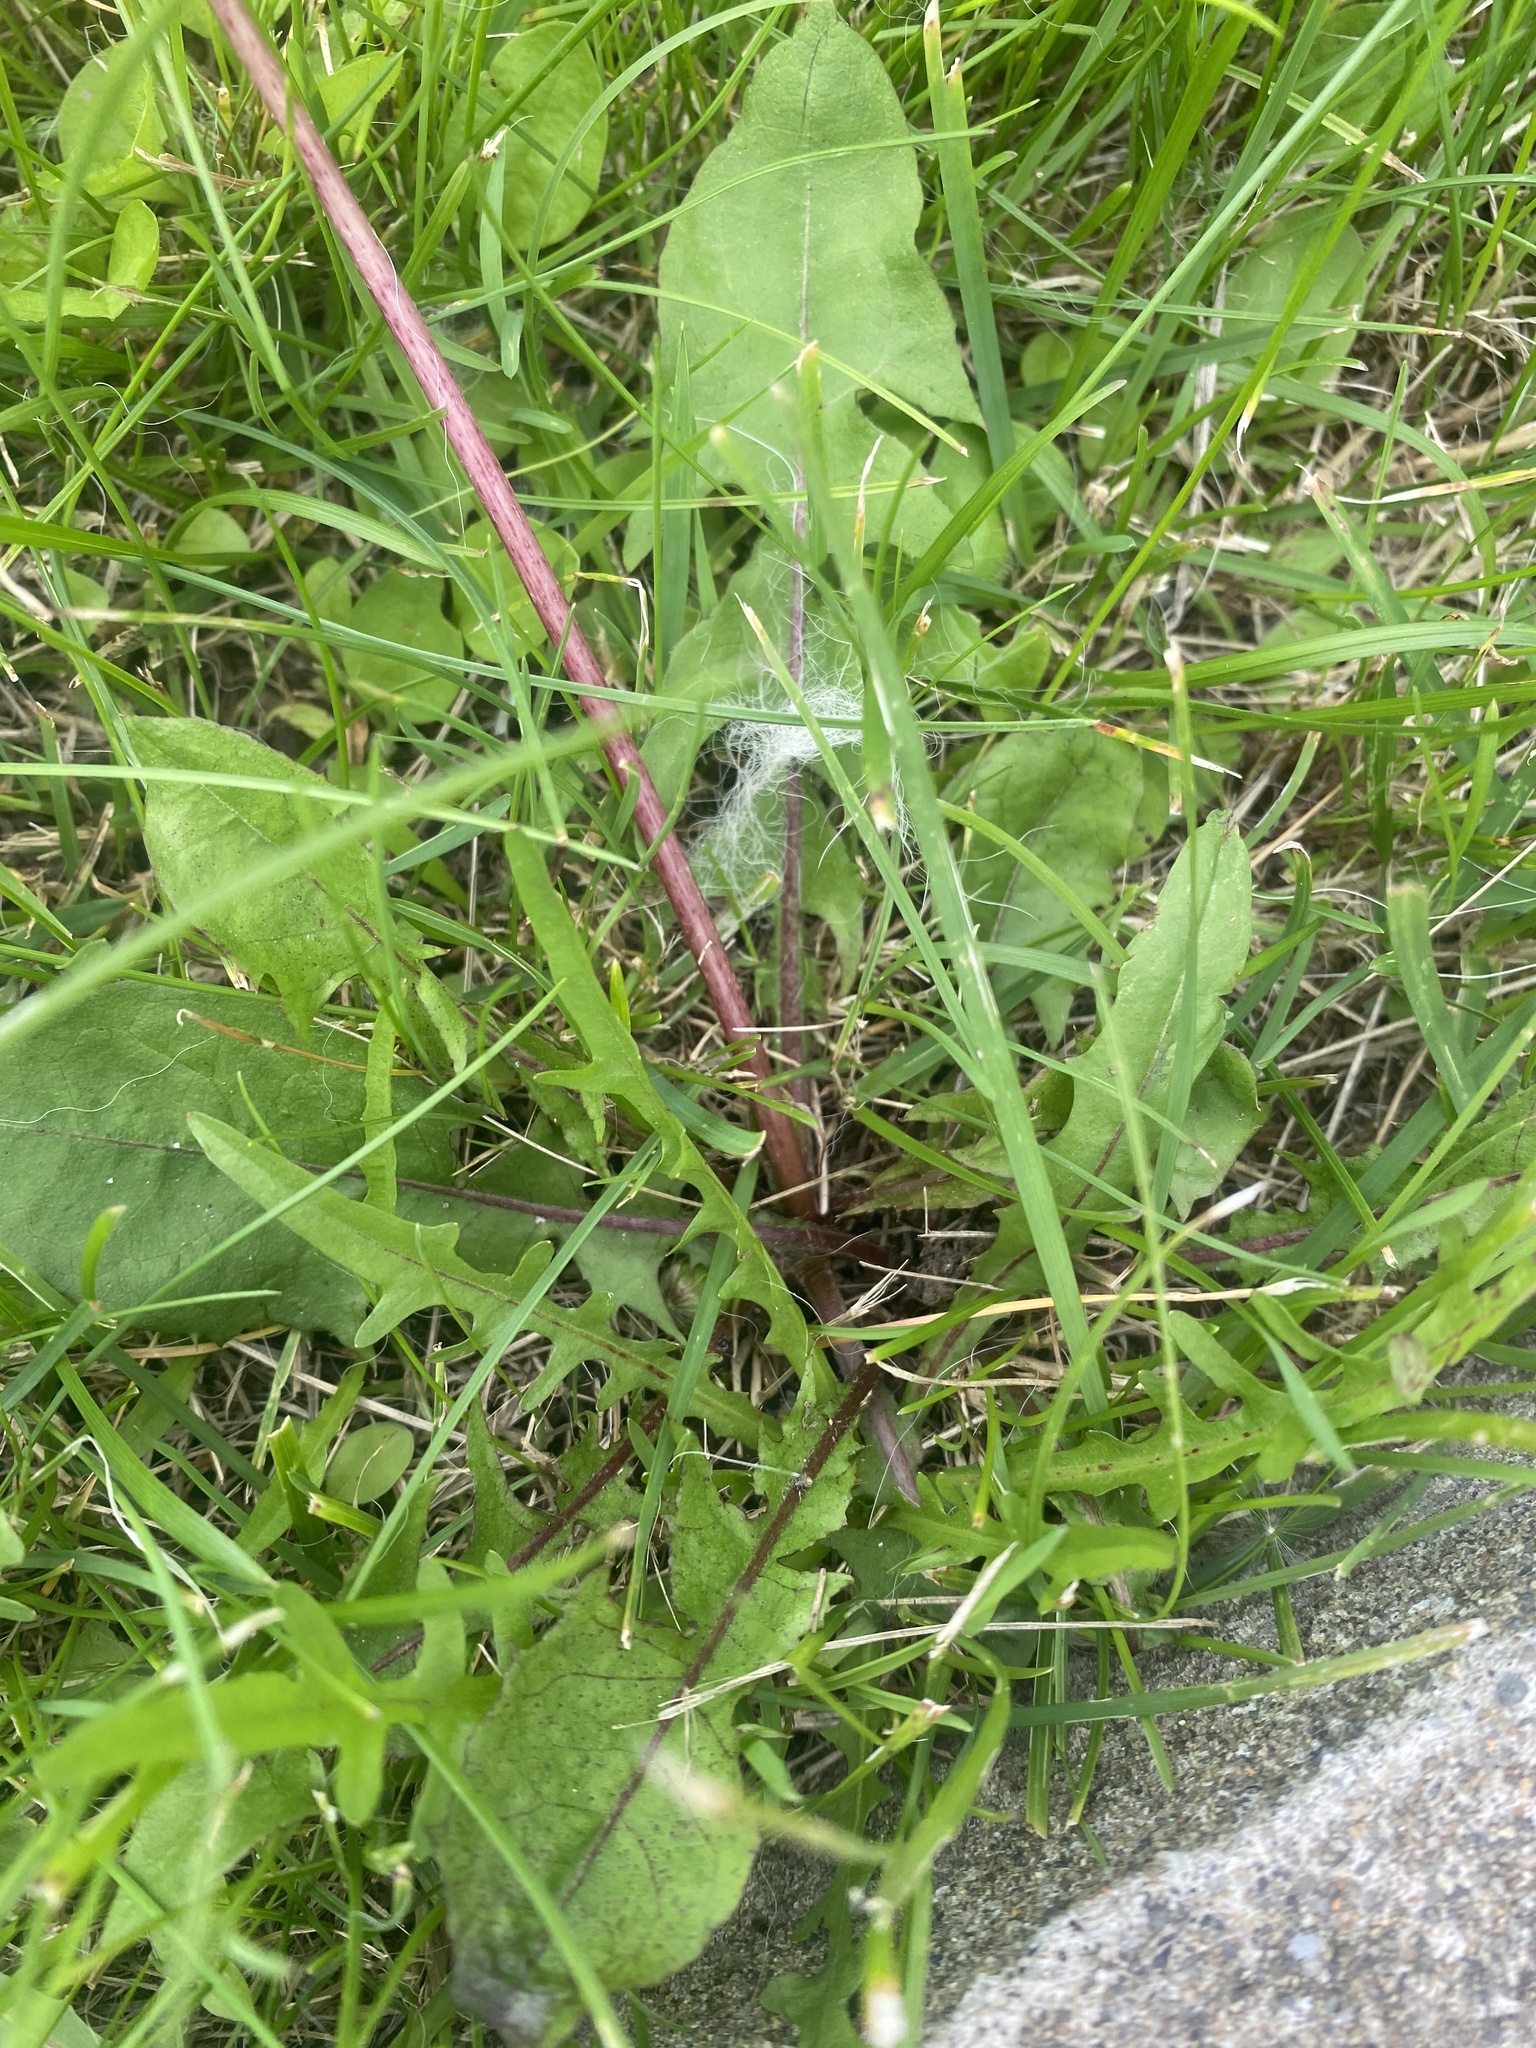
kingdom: Plantae
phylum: Tracheophyta
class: Magnoliopsida
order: Asterales
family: Asteraceae
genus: Taraxacum
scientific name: Taraxacum officinale
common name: Common dandelion
